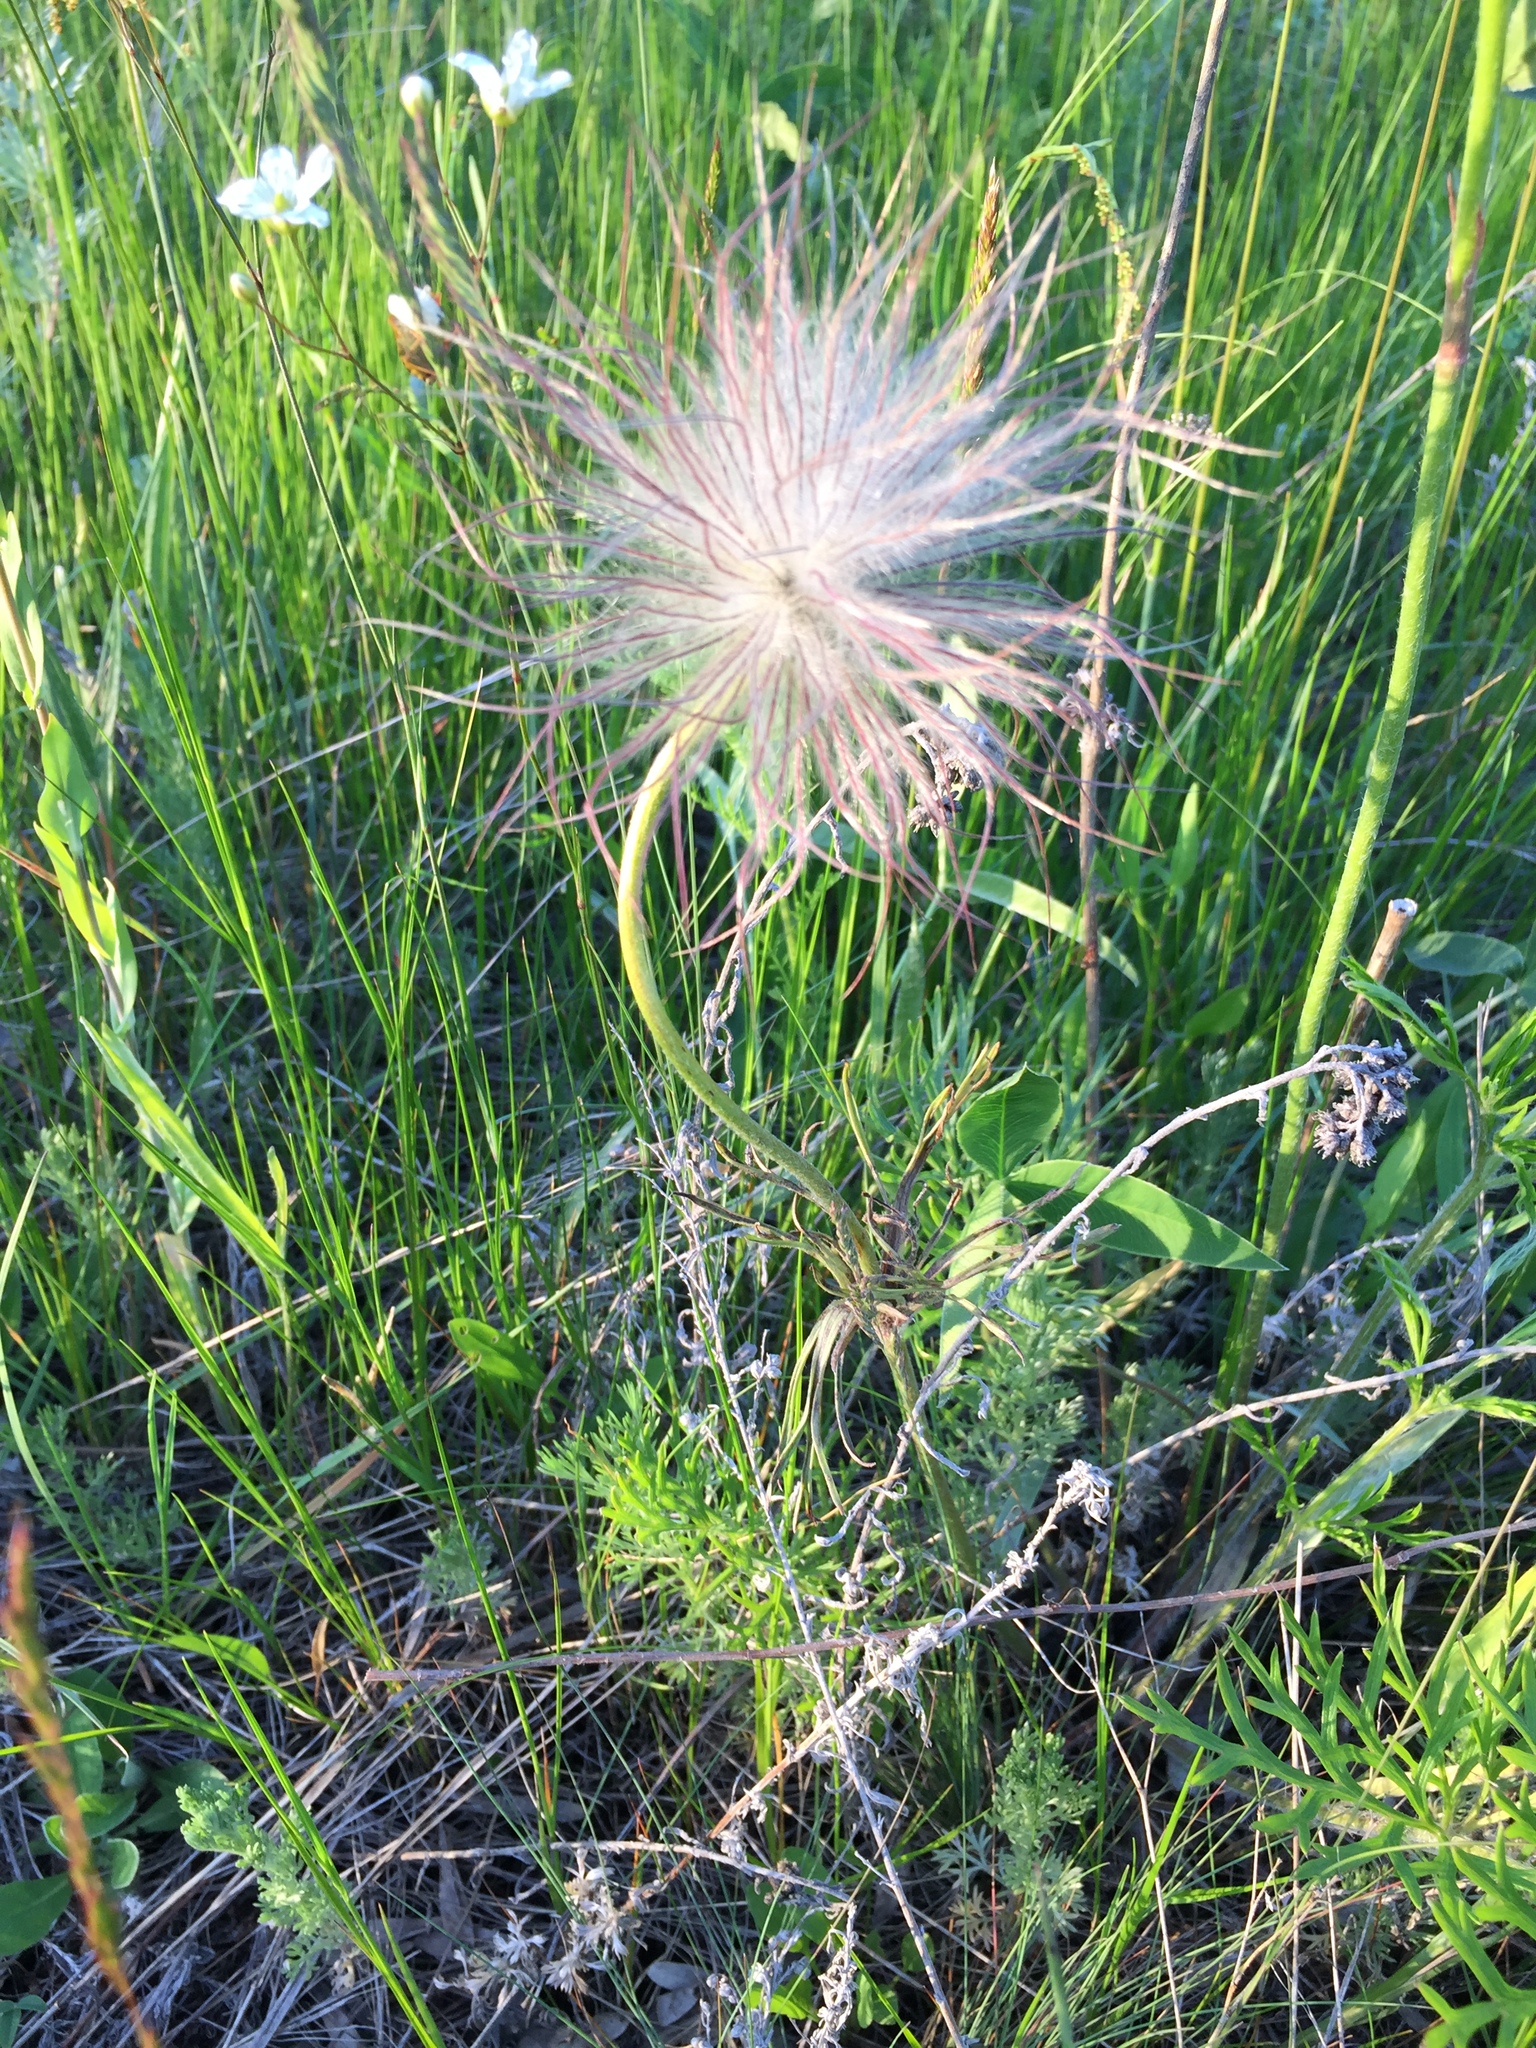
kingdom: Plantae
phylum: Tracheophyta
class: Magnoliopsida
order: Ranunculales
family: Ranunculaceae
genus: Pulsatilla
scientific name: Pulsatilla pratensis
